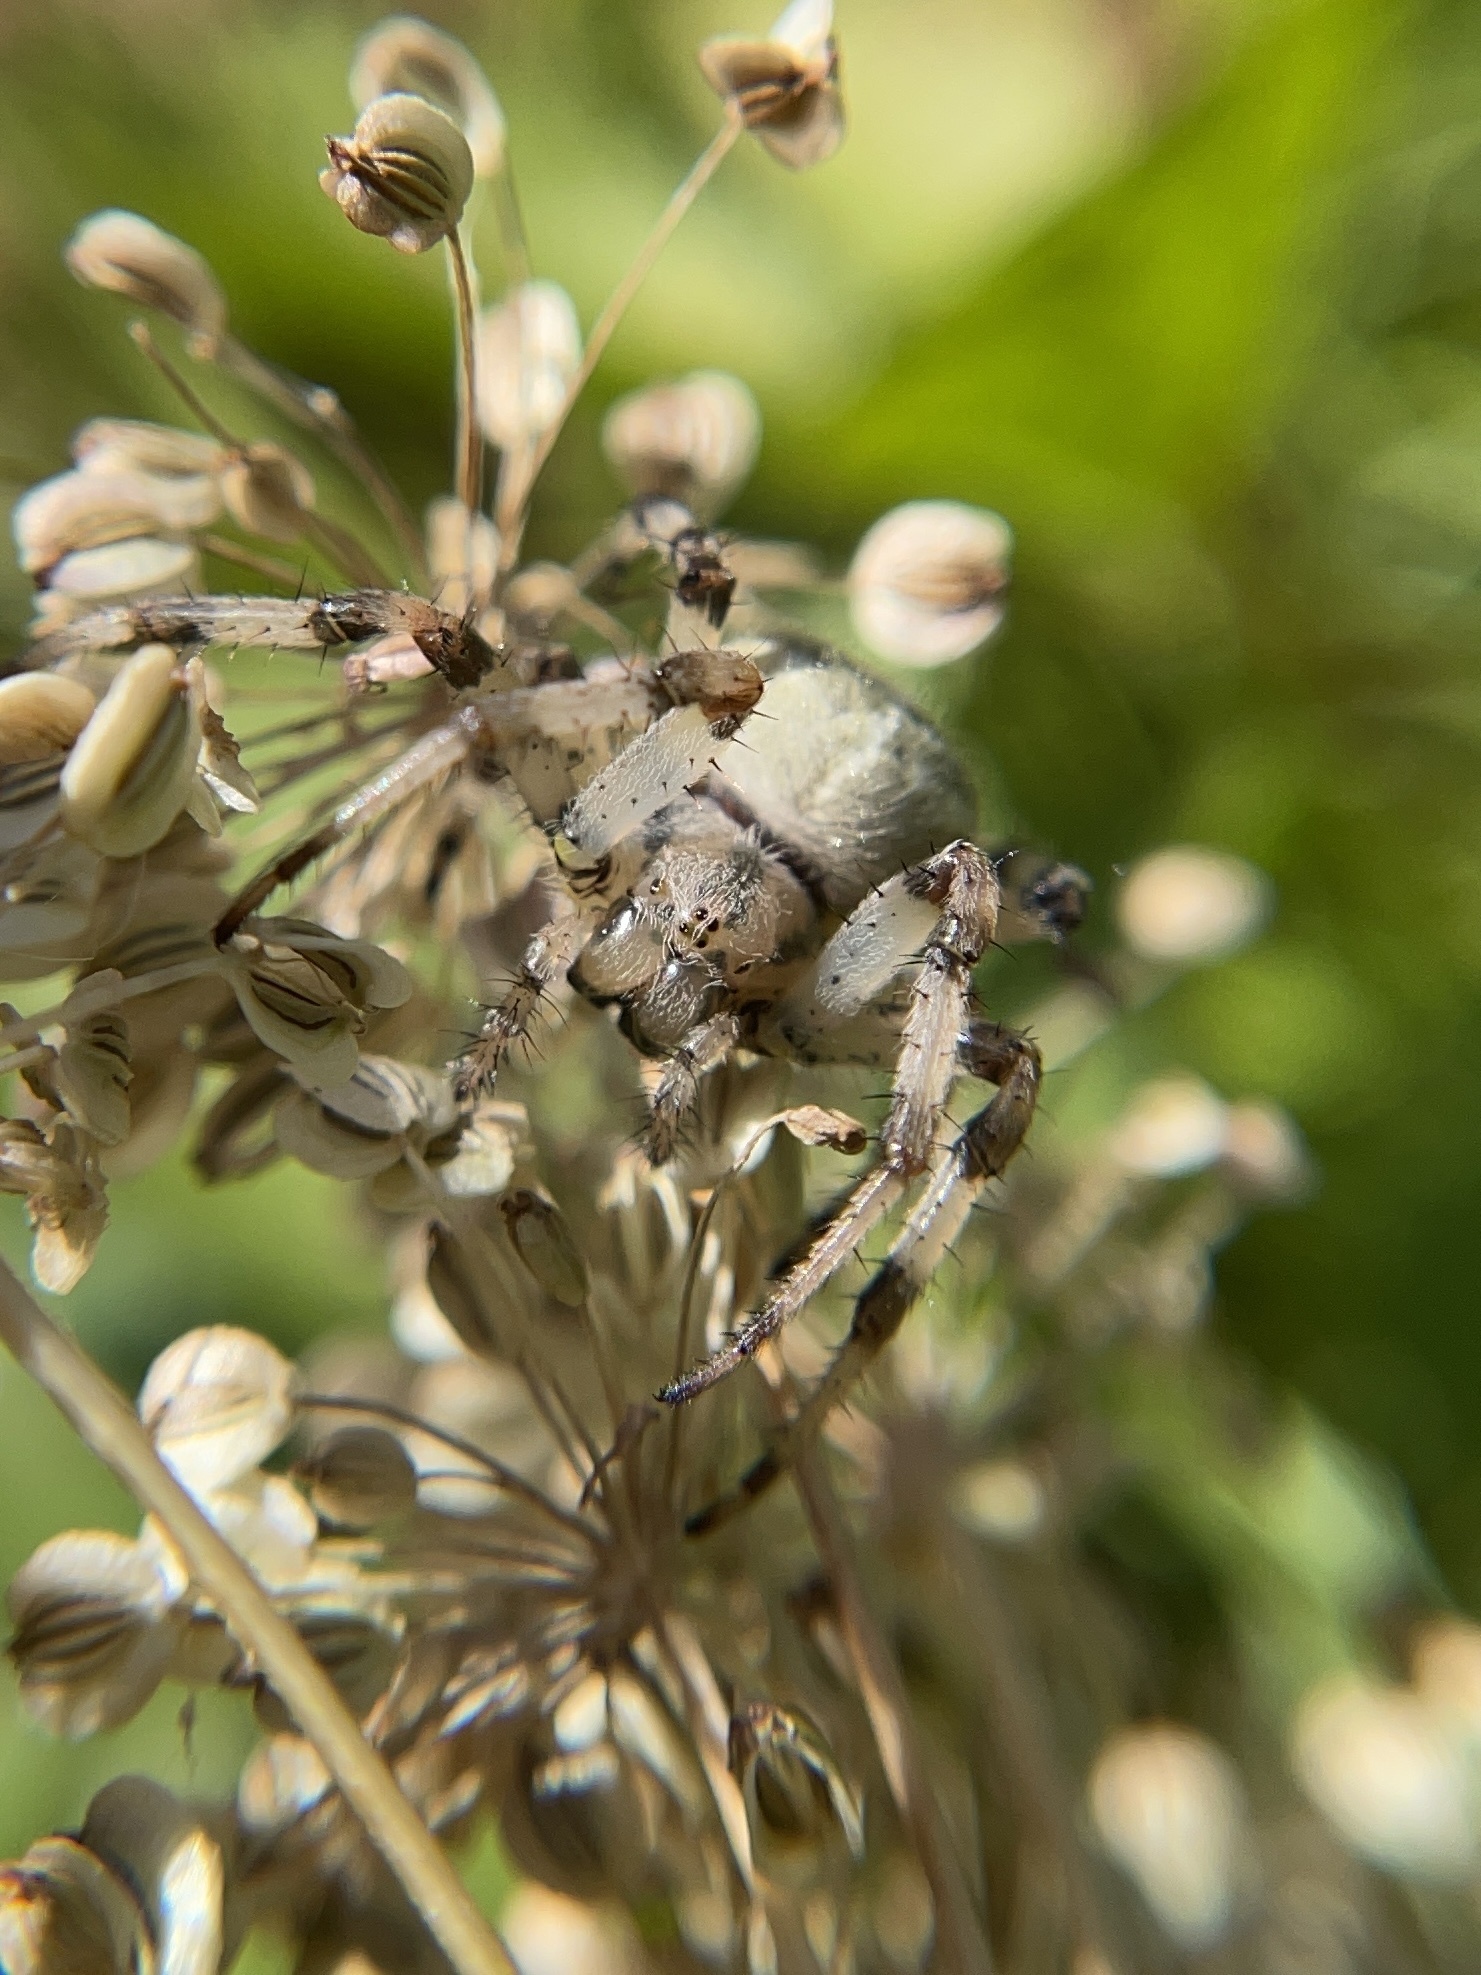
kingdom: Animalia
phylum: Arthropoda
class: Arachnida
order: Araneae
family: Araneidae
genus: Araneus
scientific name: Araneus quadratus
